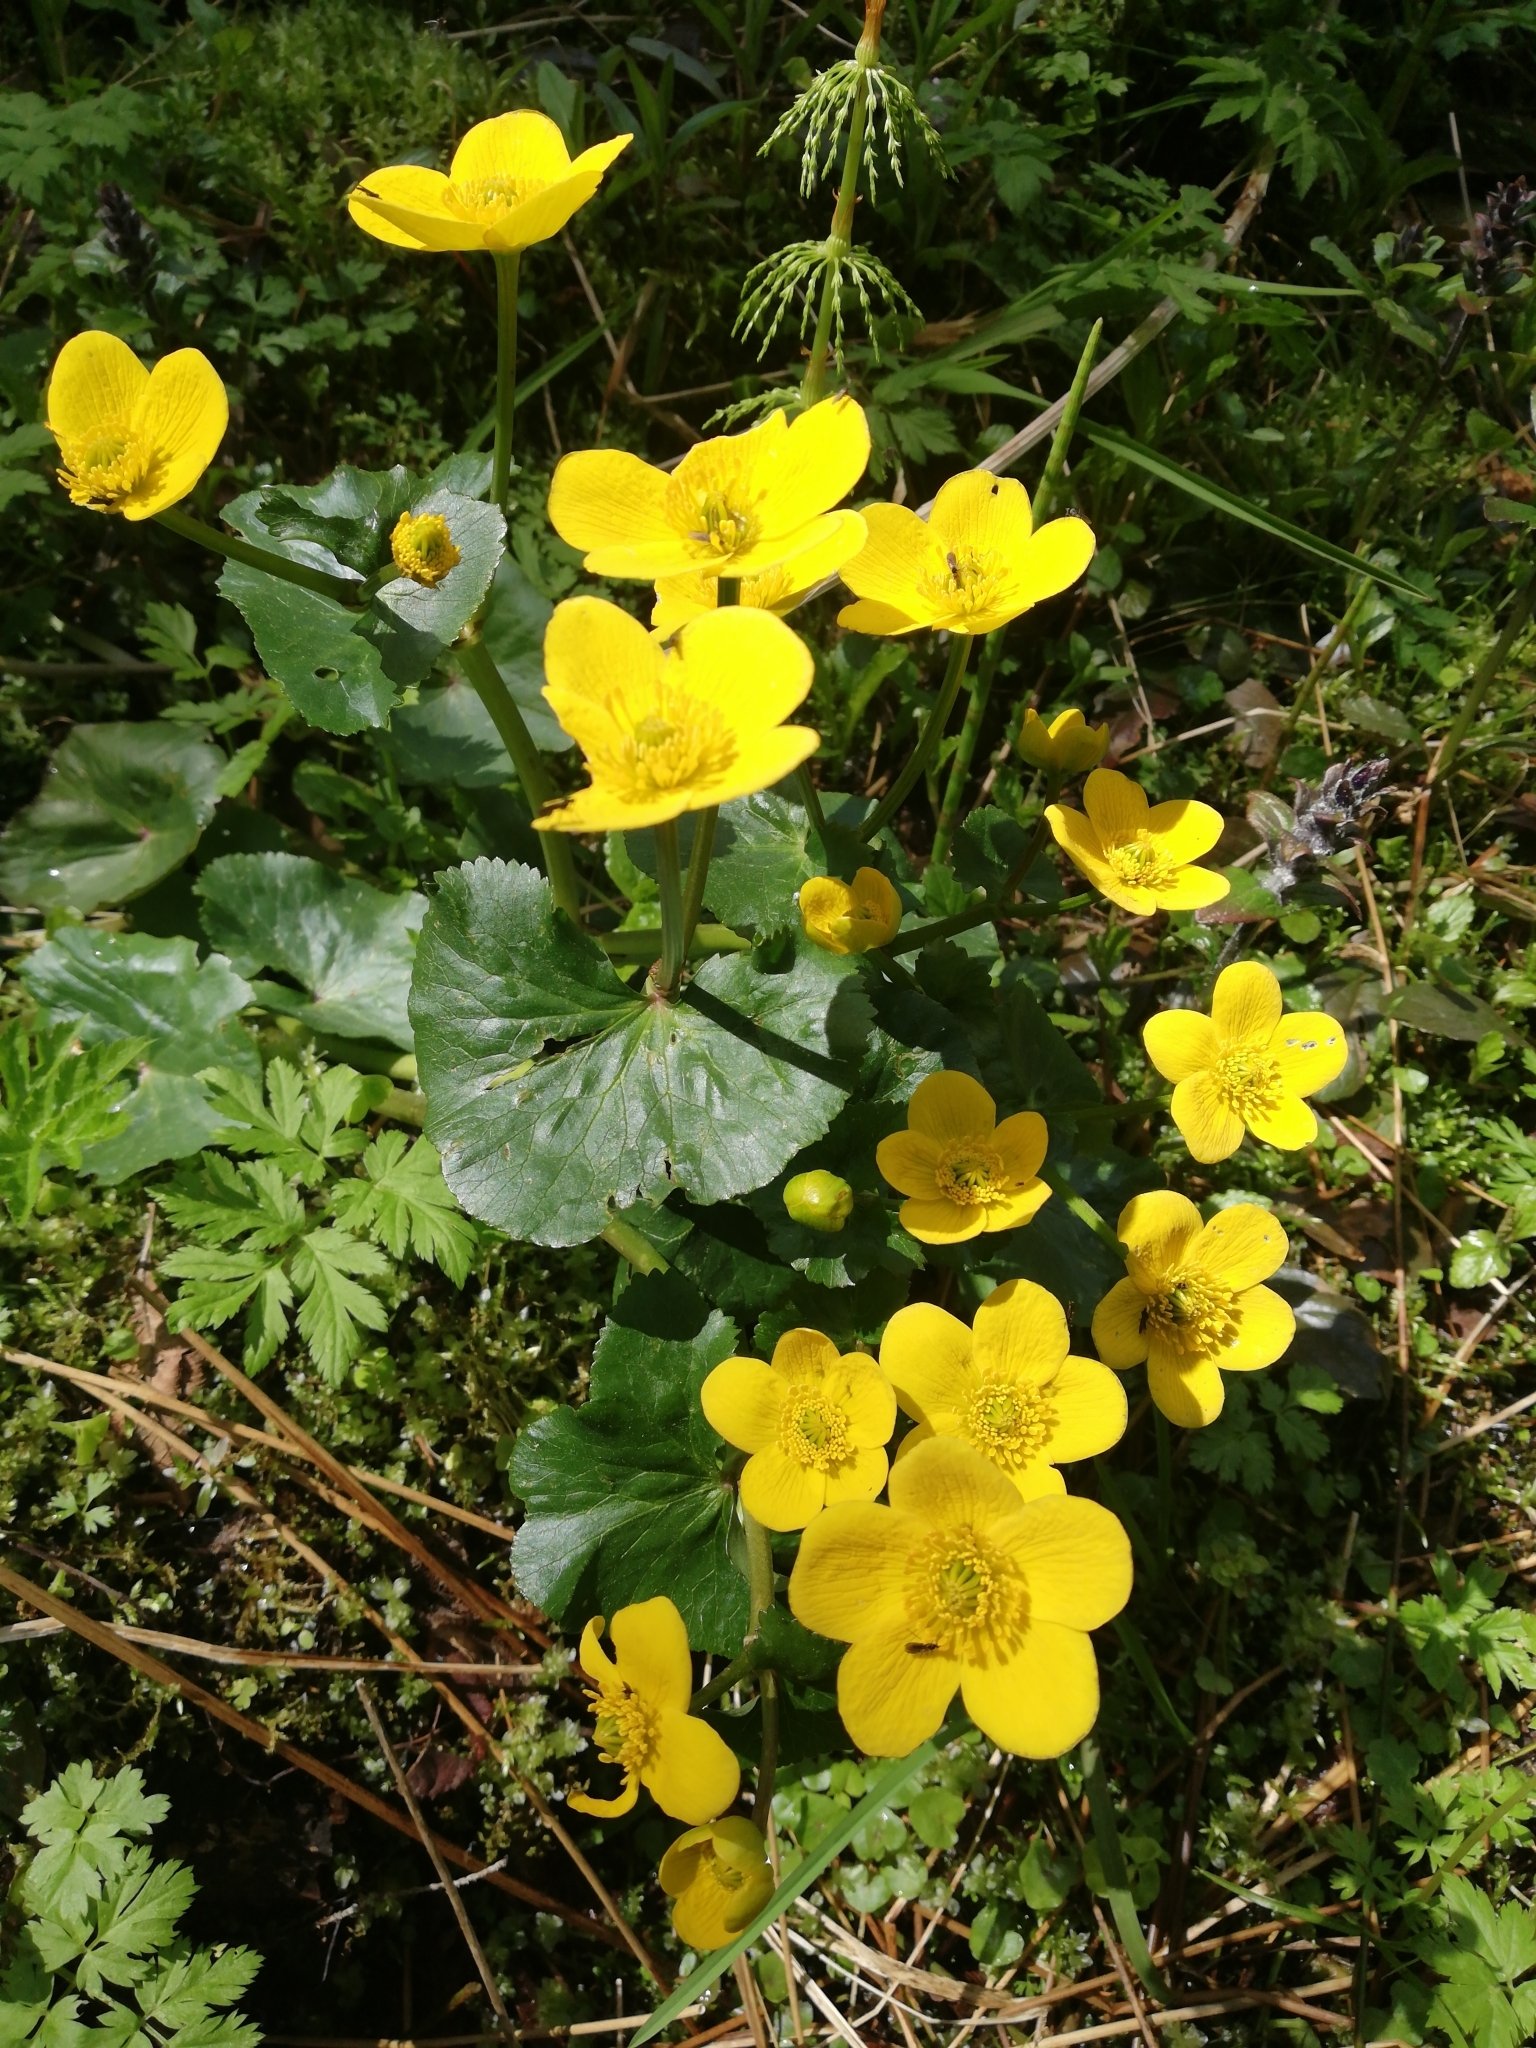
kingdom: Plantae
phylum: Tracheophyta
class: Magnoliopsida
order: Ranunculales
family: Ranunculaceae
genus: Caltha
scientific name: Caltha palustris
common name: Marsh marigold
